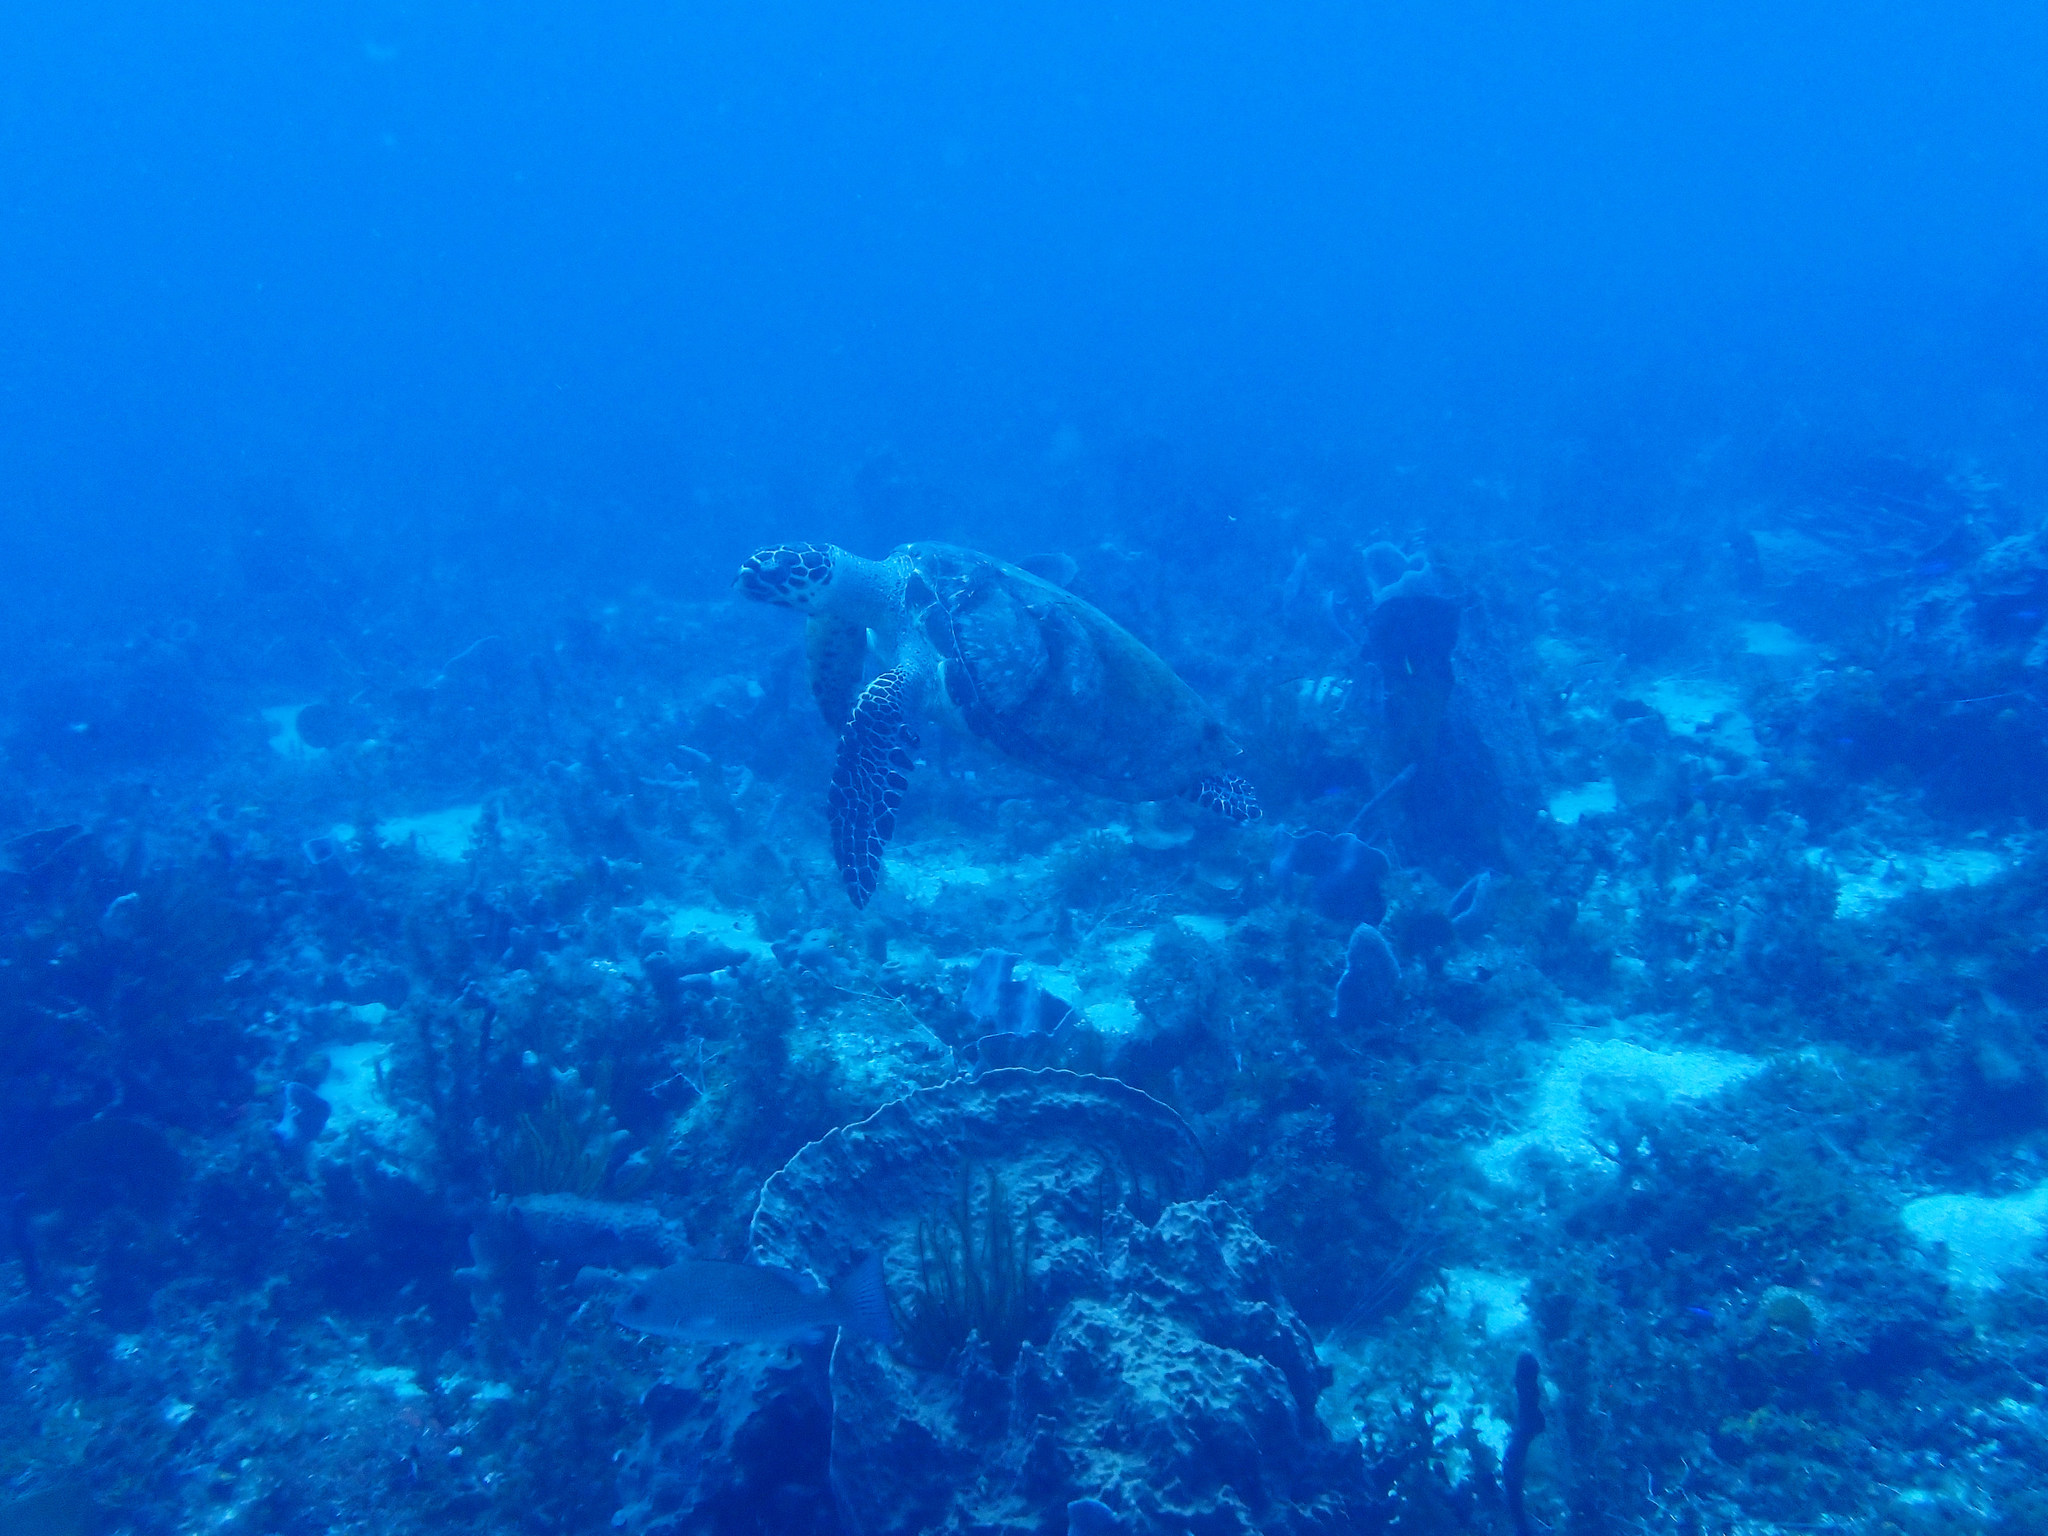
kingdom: Animalia
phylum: Chordata
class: Testudines
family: Cheloniidae
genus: Eretmochelys
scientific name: Eretmochelys imbricata
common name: Hawksbill turtle
